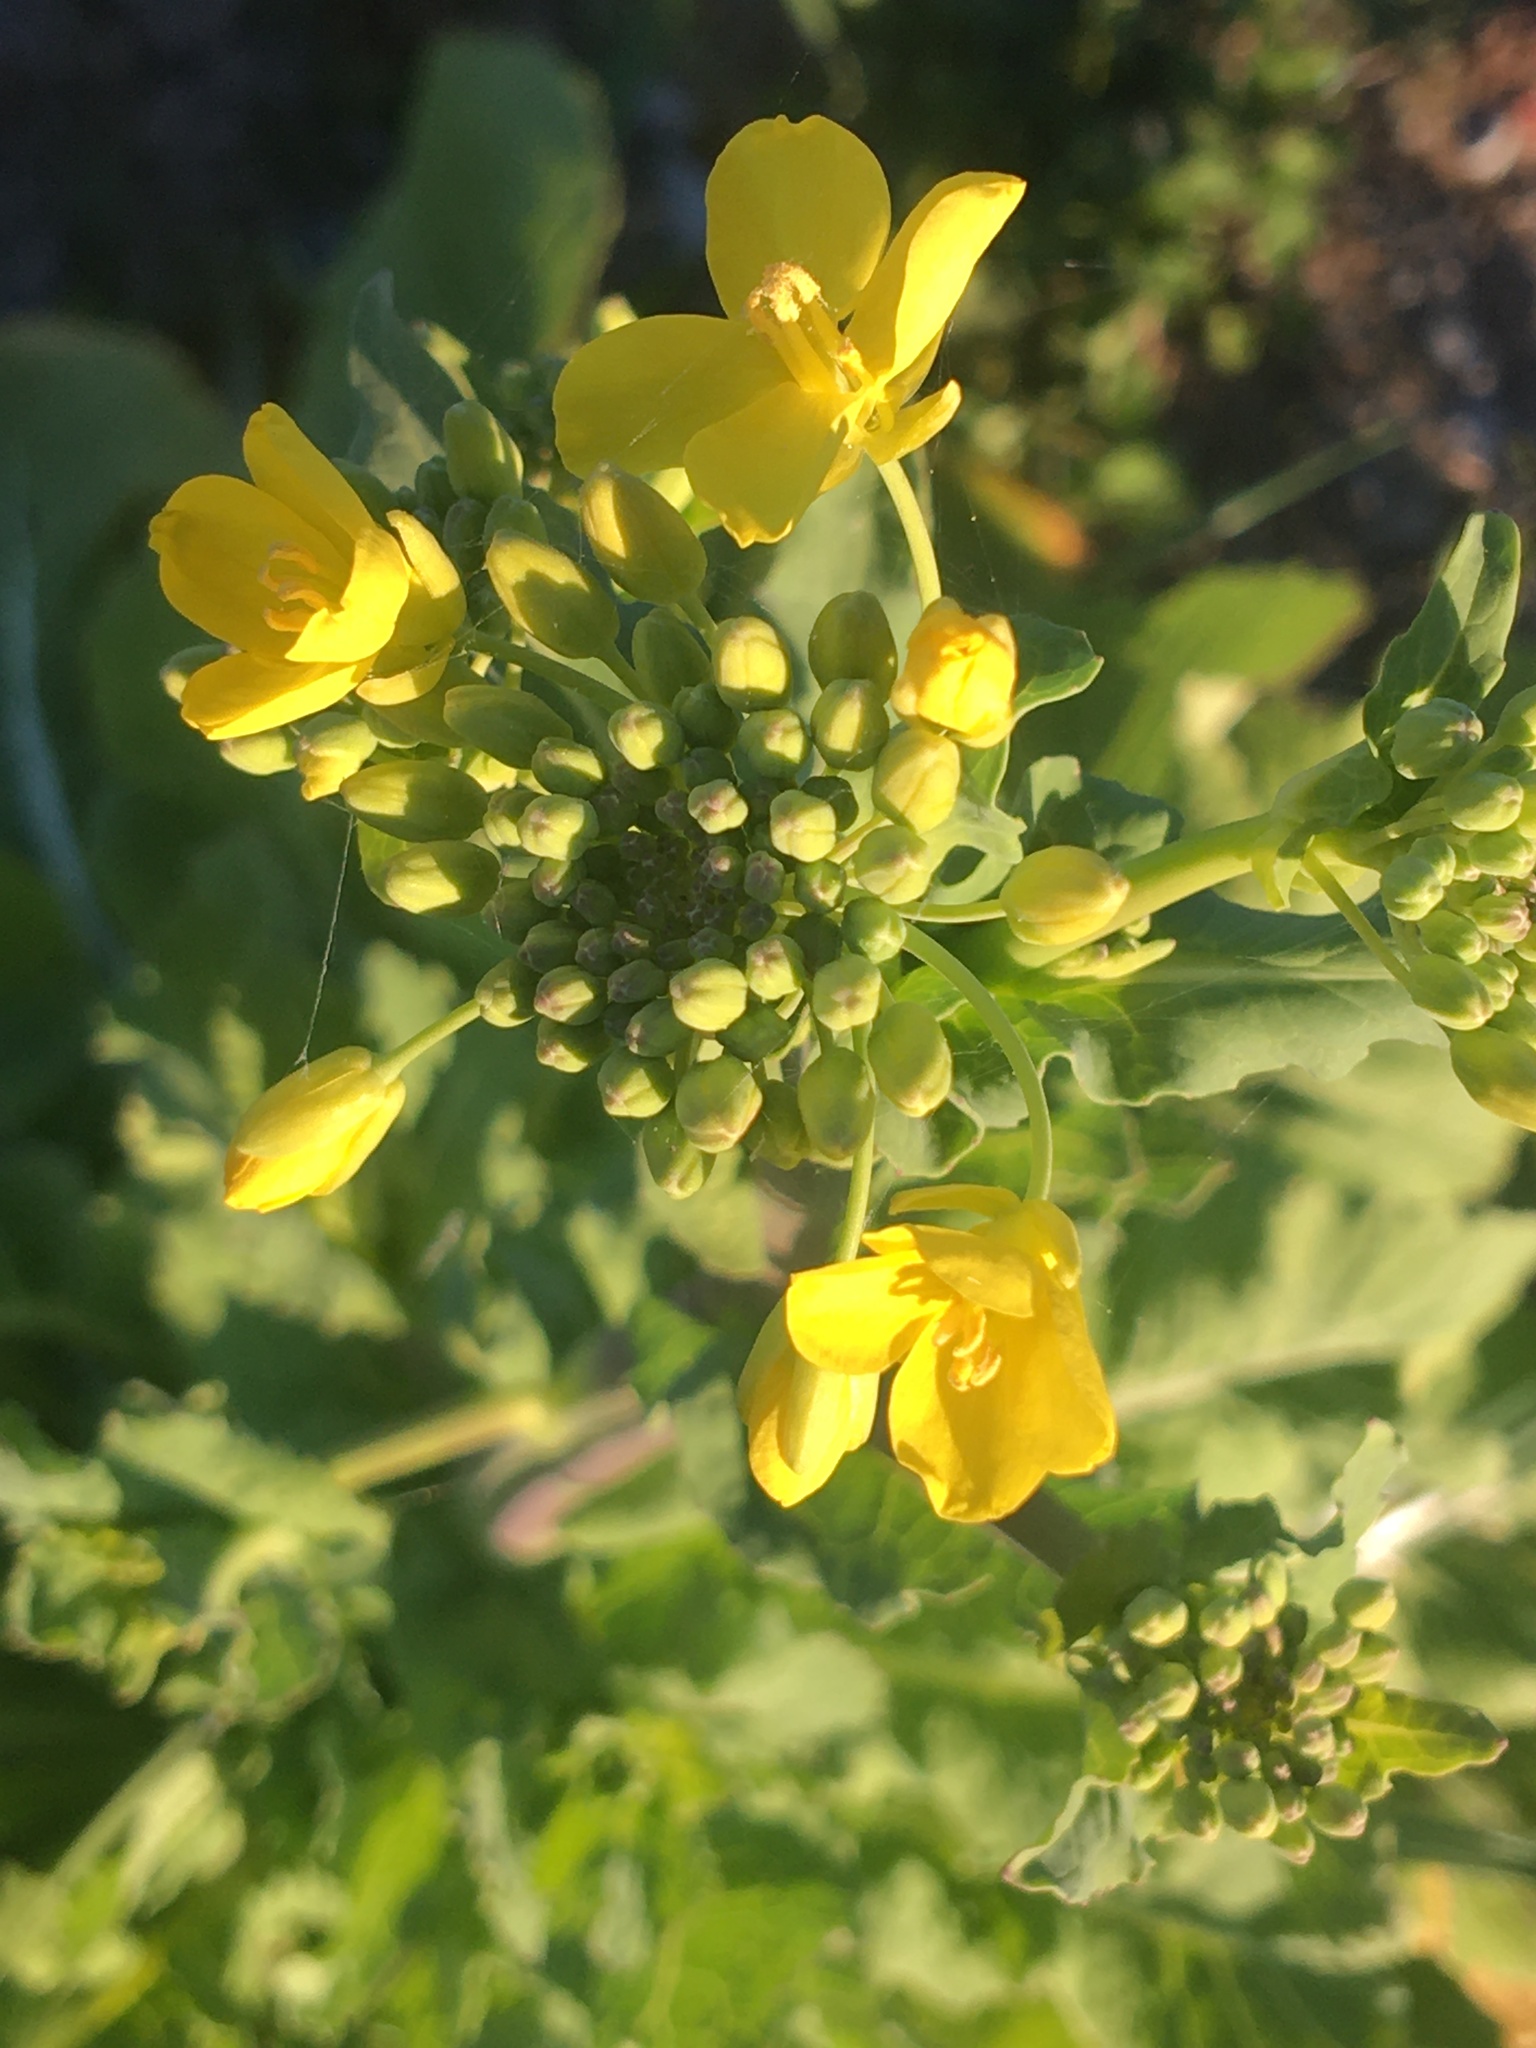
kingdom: Plantae
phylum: Tracheophyta
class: Magnoliopsida
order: Brassicales
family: Brassicaceae
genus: Brassica
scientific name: Brassica rapa
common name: Field mustard
